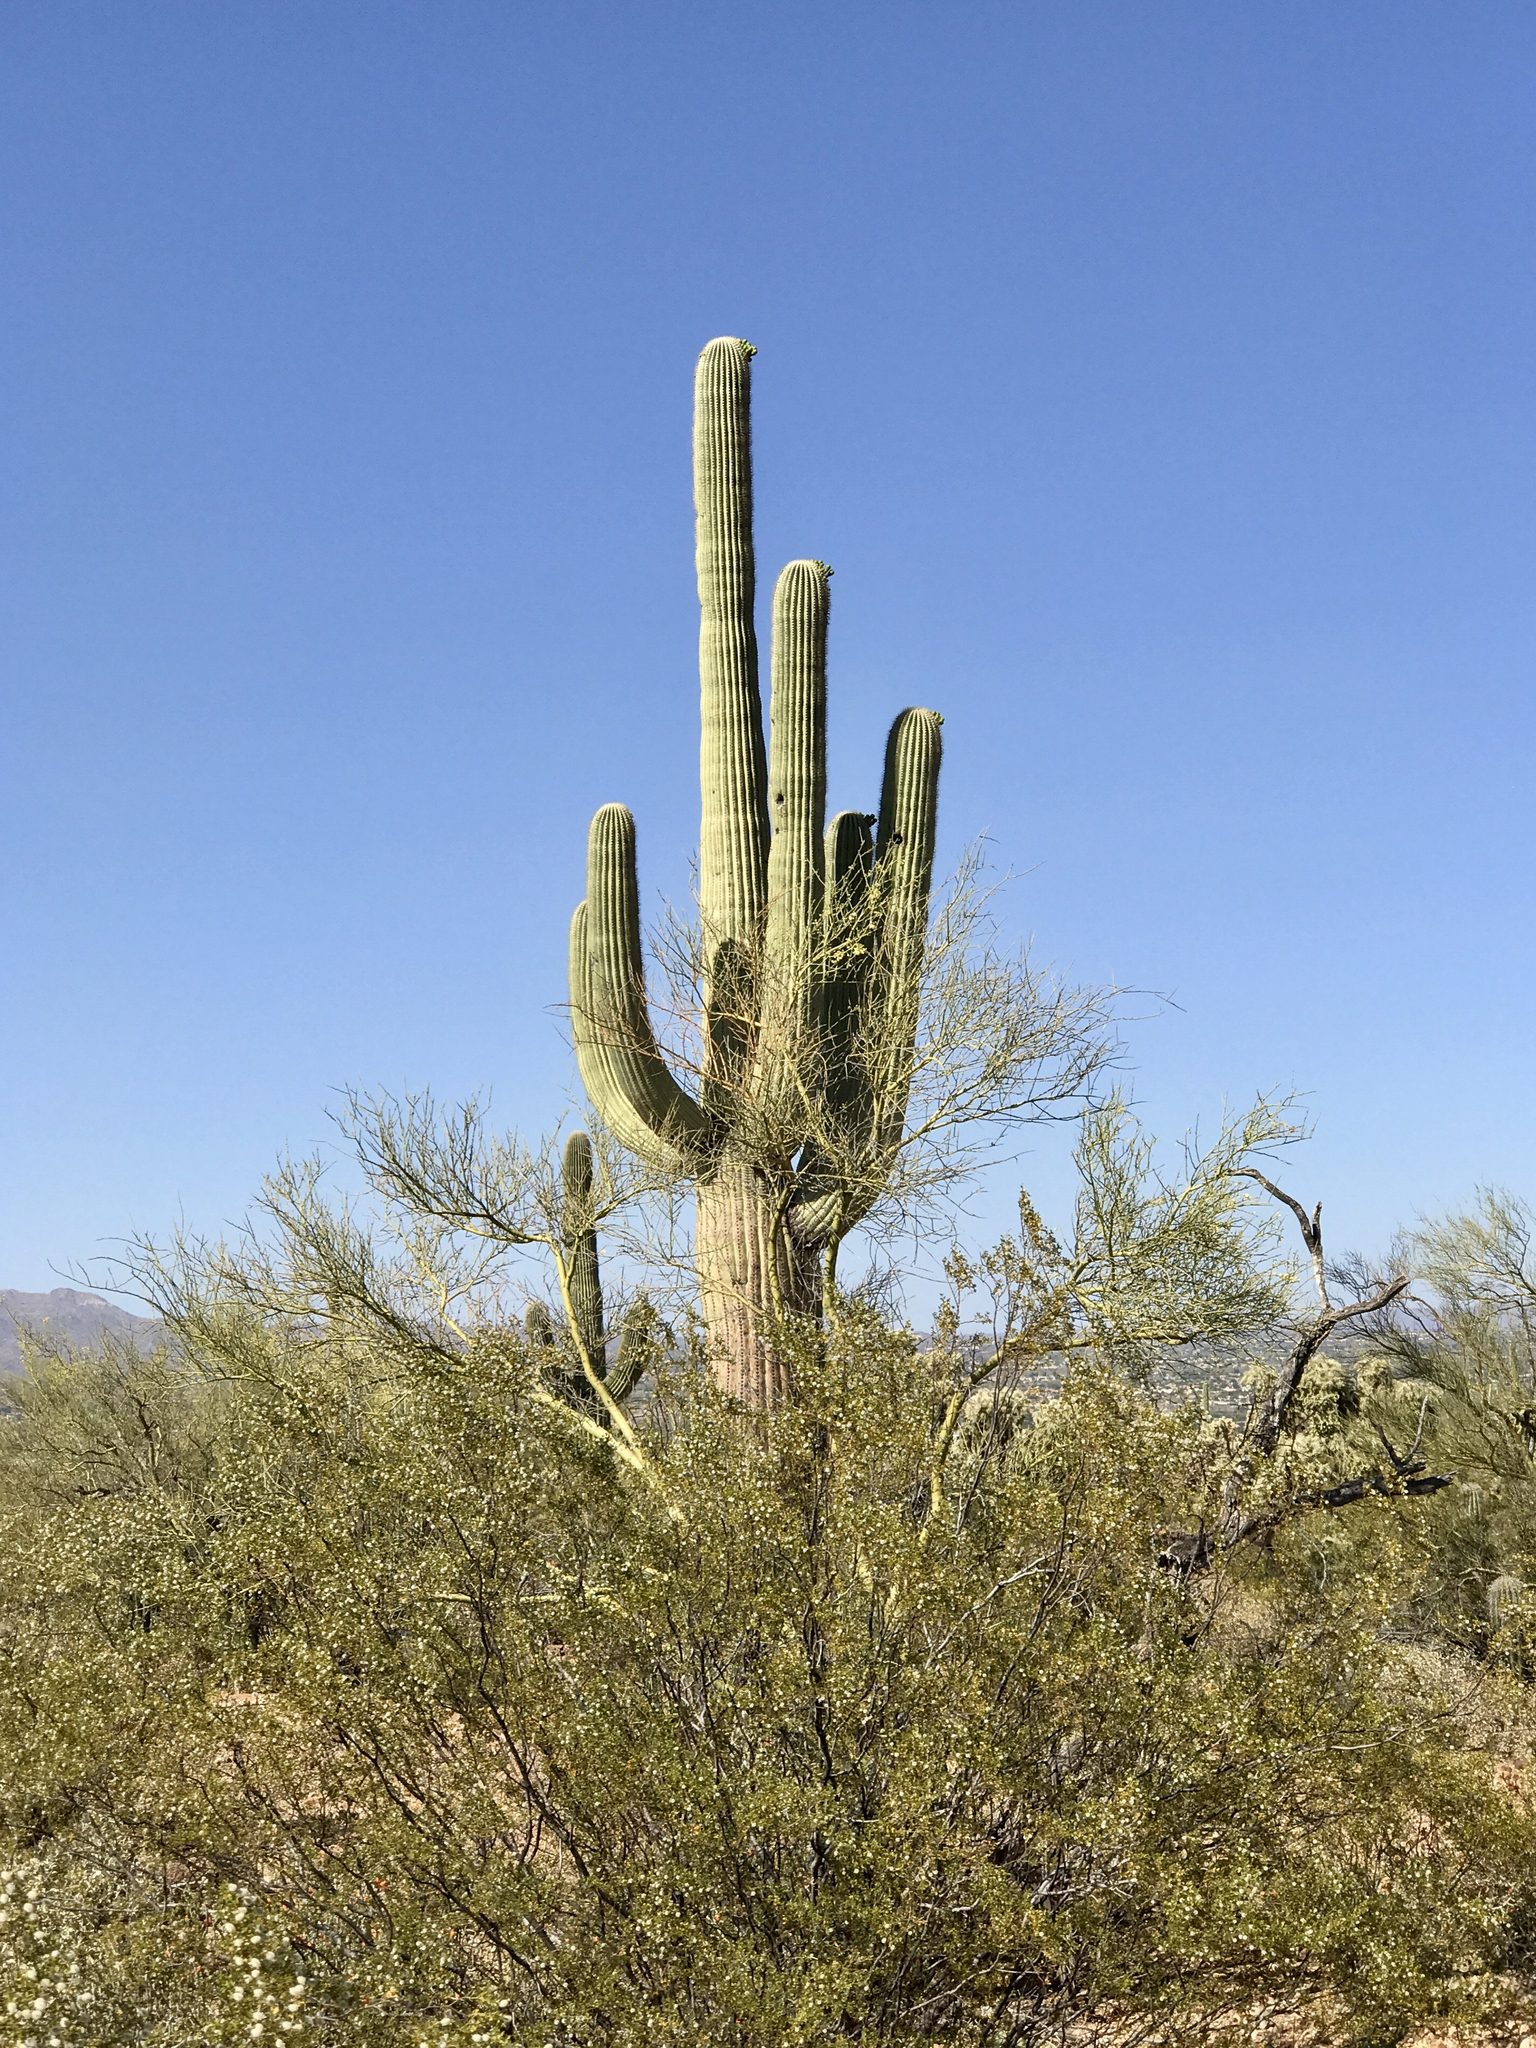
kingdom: Plantae
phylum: Tracheophyta
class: Magnoliopsida
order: Fabales
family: Fabaceae
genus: Parkinsonia
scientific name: Parkinsonia microphylla
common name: Yellow paloverde
